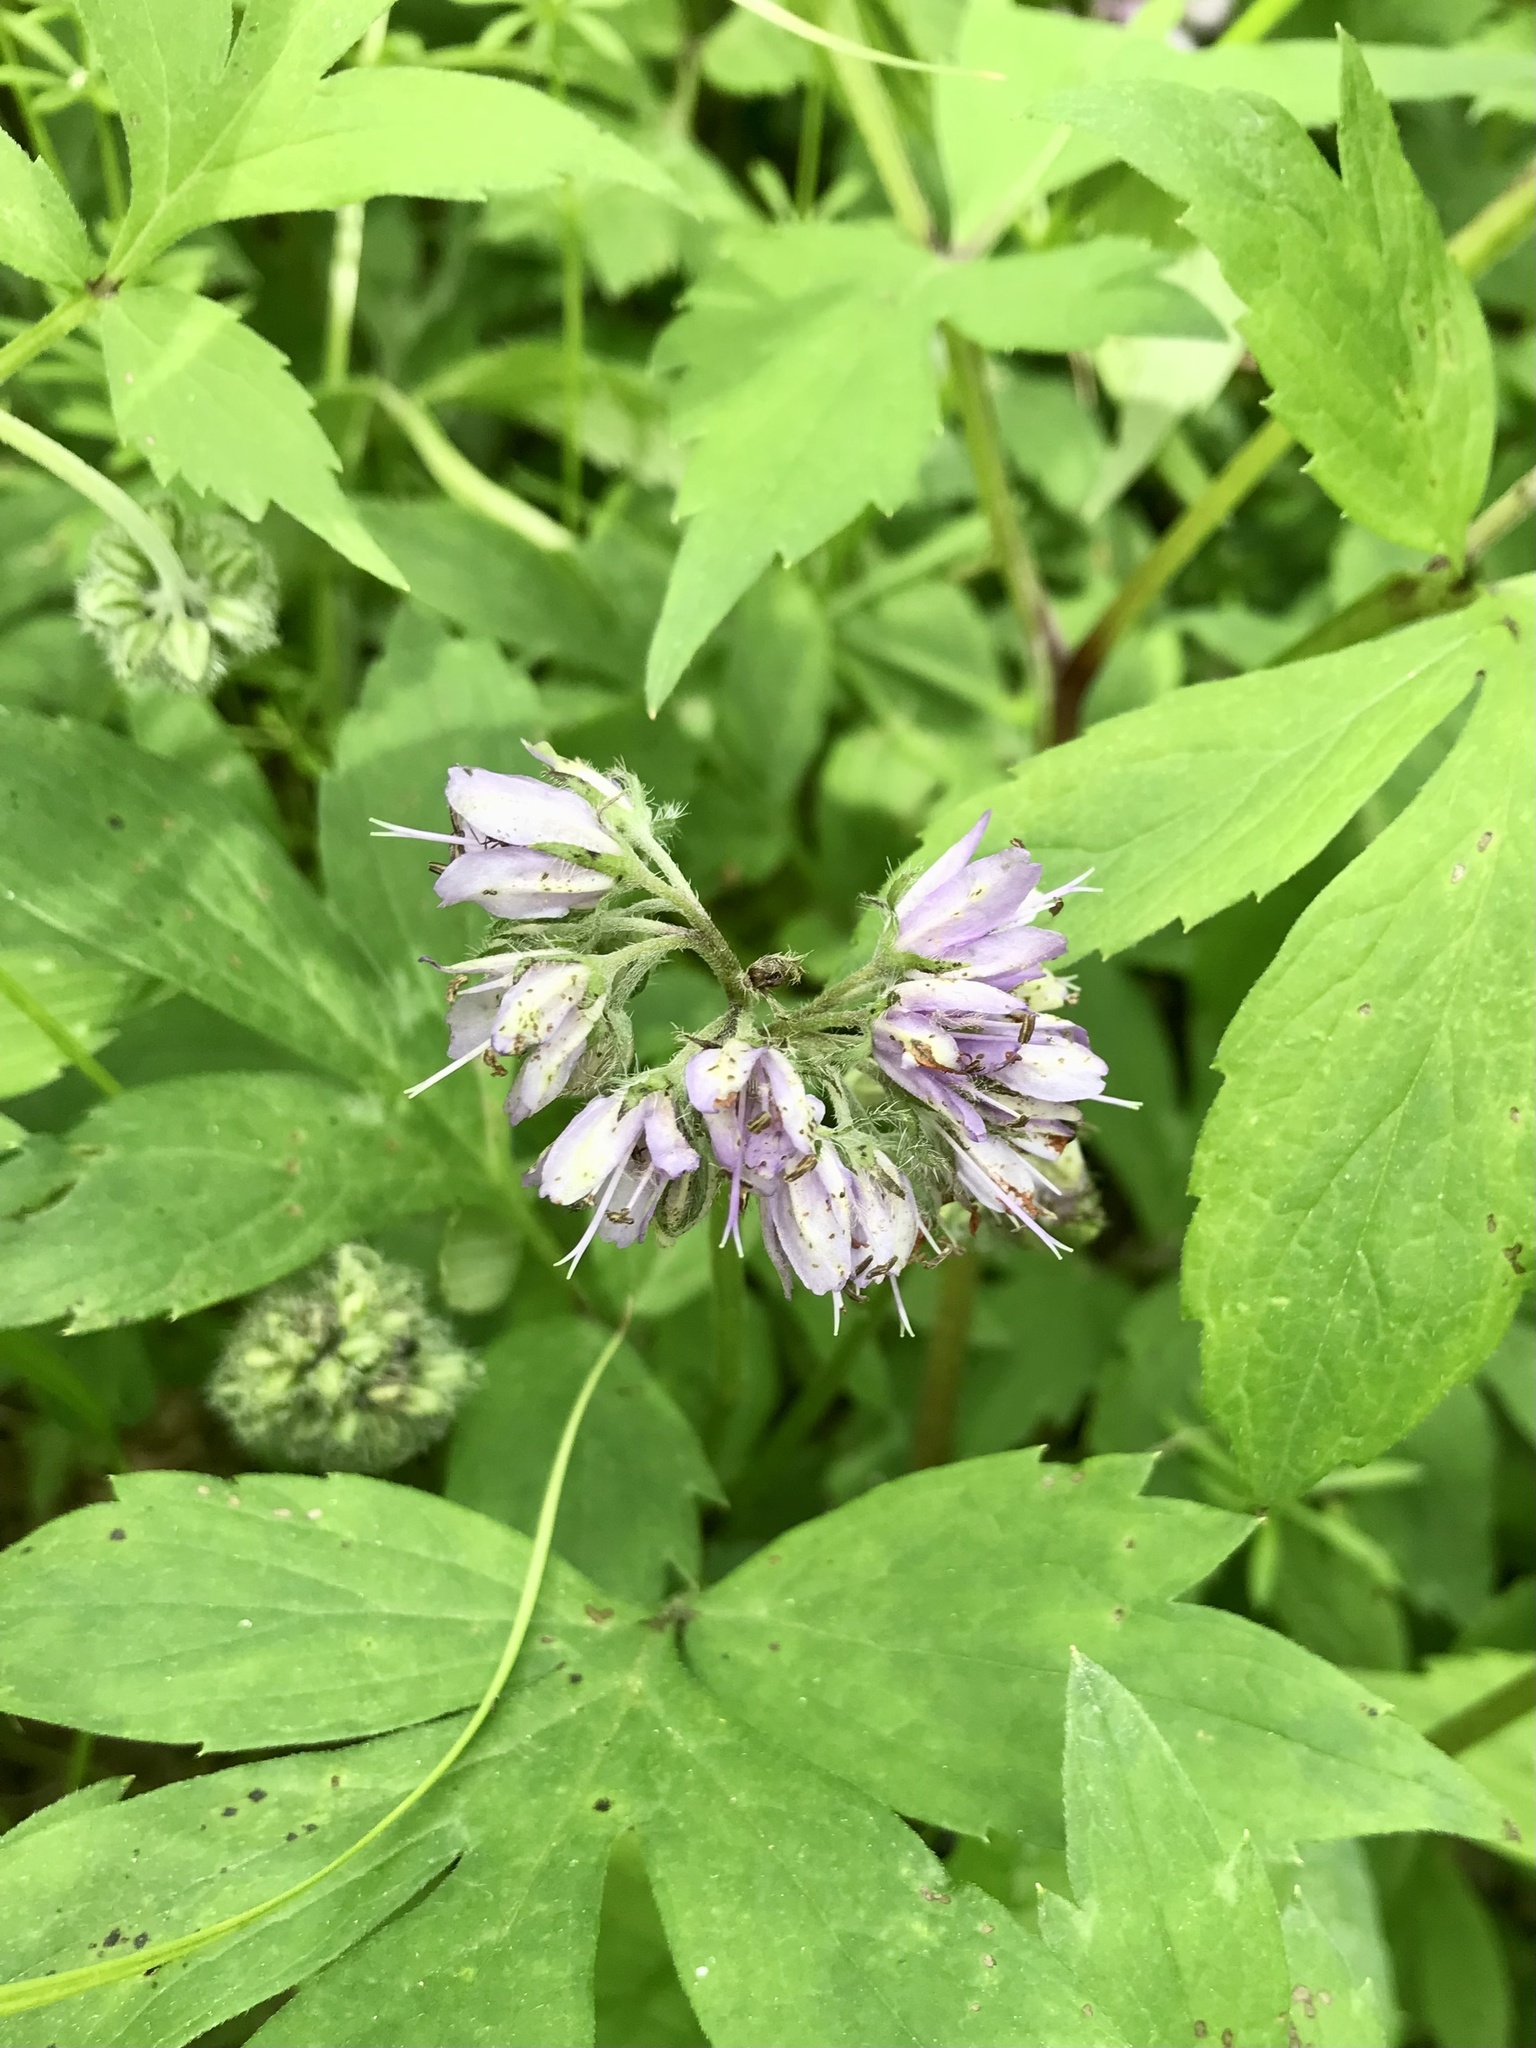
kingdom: Plantae
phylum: Tracheophyta
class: Magnoliopsida
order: Boraginales
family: Hydrophyllaceae
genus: Hydrophyllum
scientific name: Hydrophyllum virginianum
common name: Virginia waterleaf
